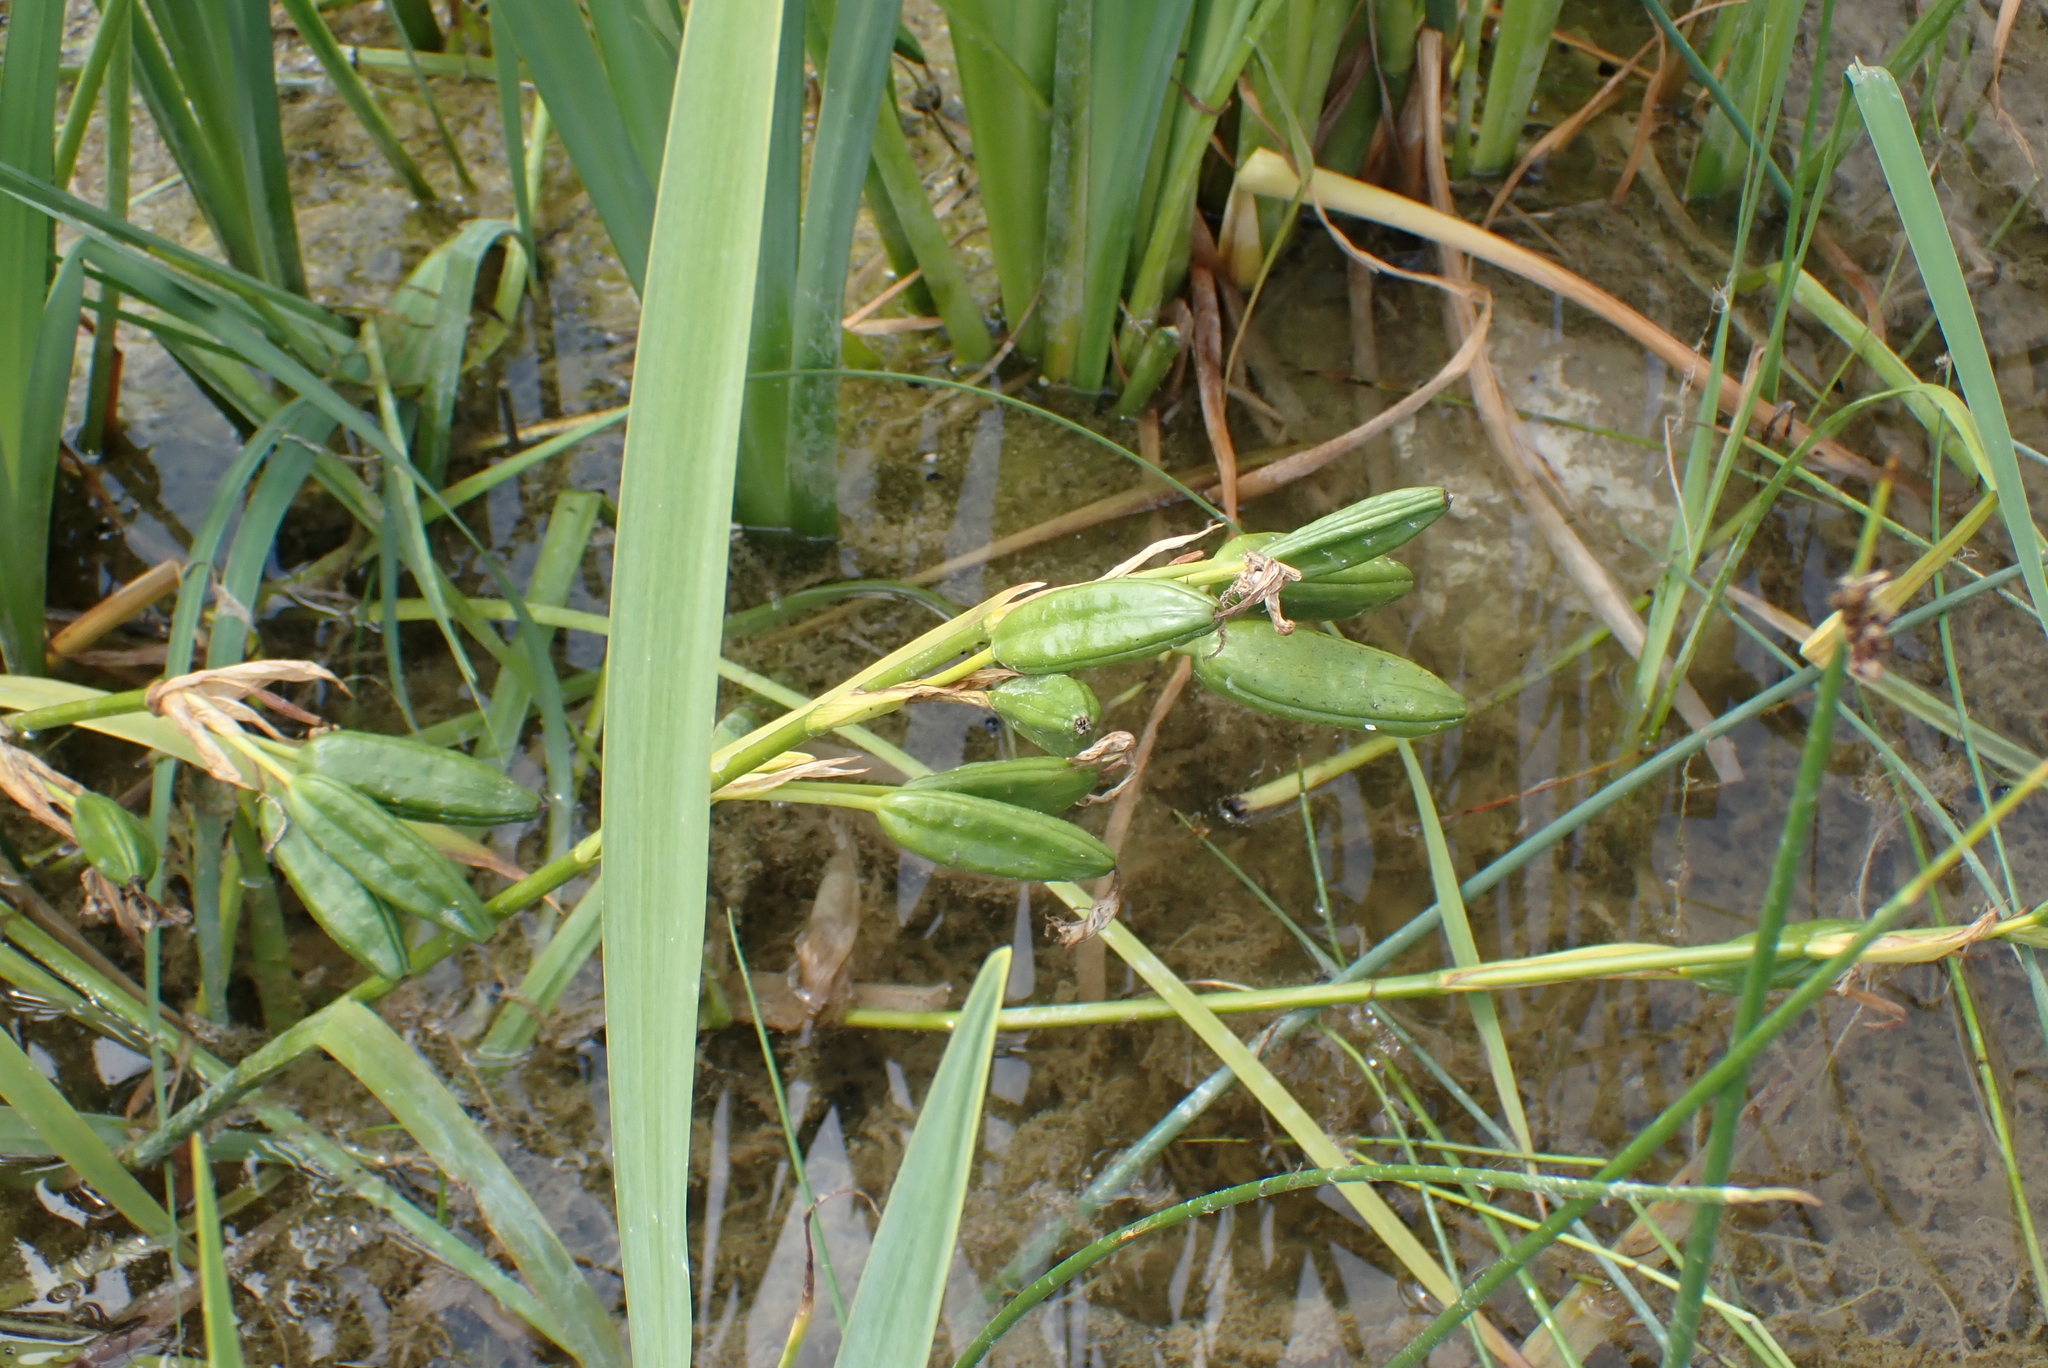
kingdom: Plantae
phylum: Tracheophyta
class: Liliopsida
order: Asparagales
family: Iridaceae
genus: Iris
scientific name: Iris pseudacorus
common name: Yellow flag
